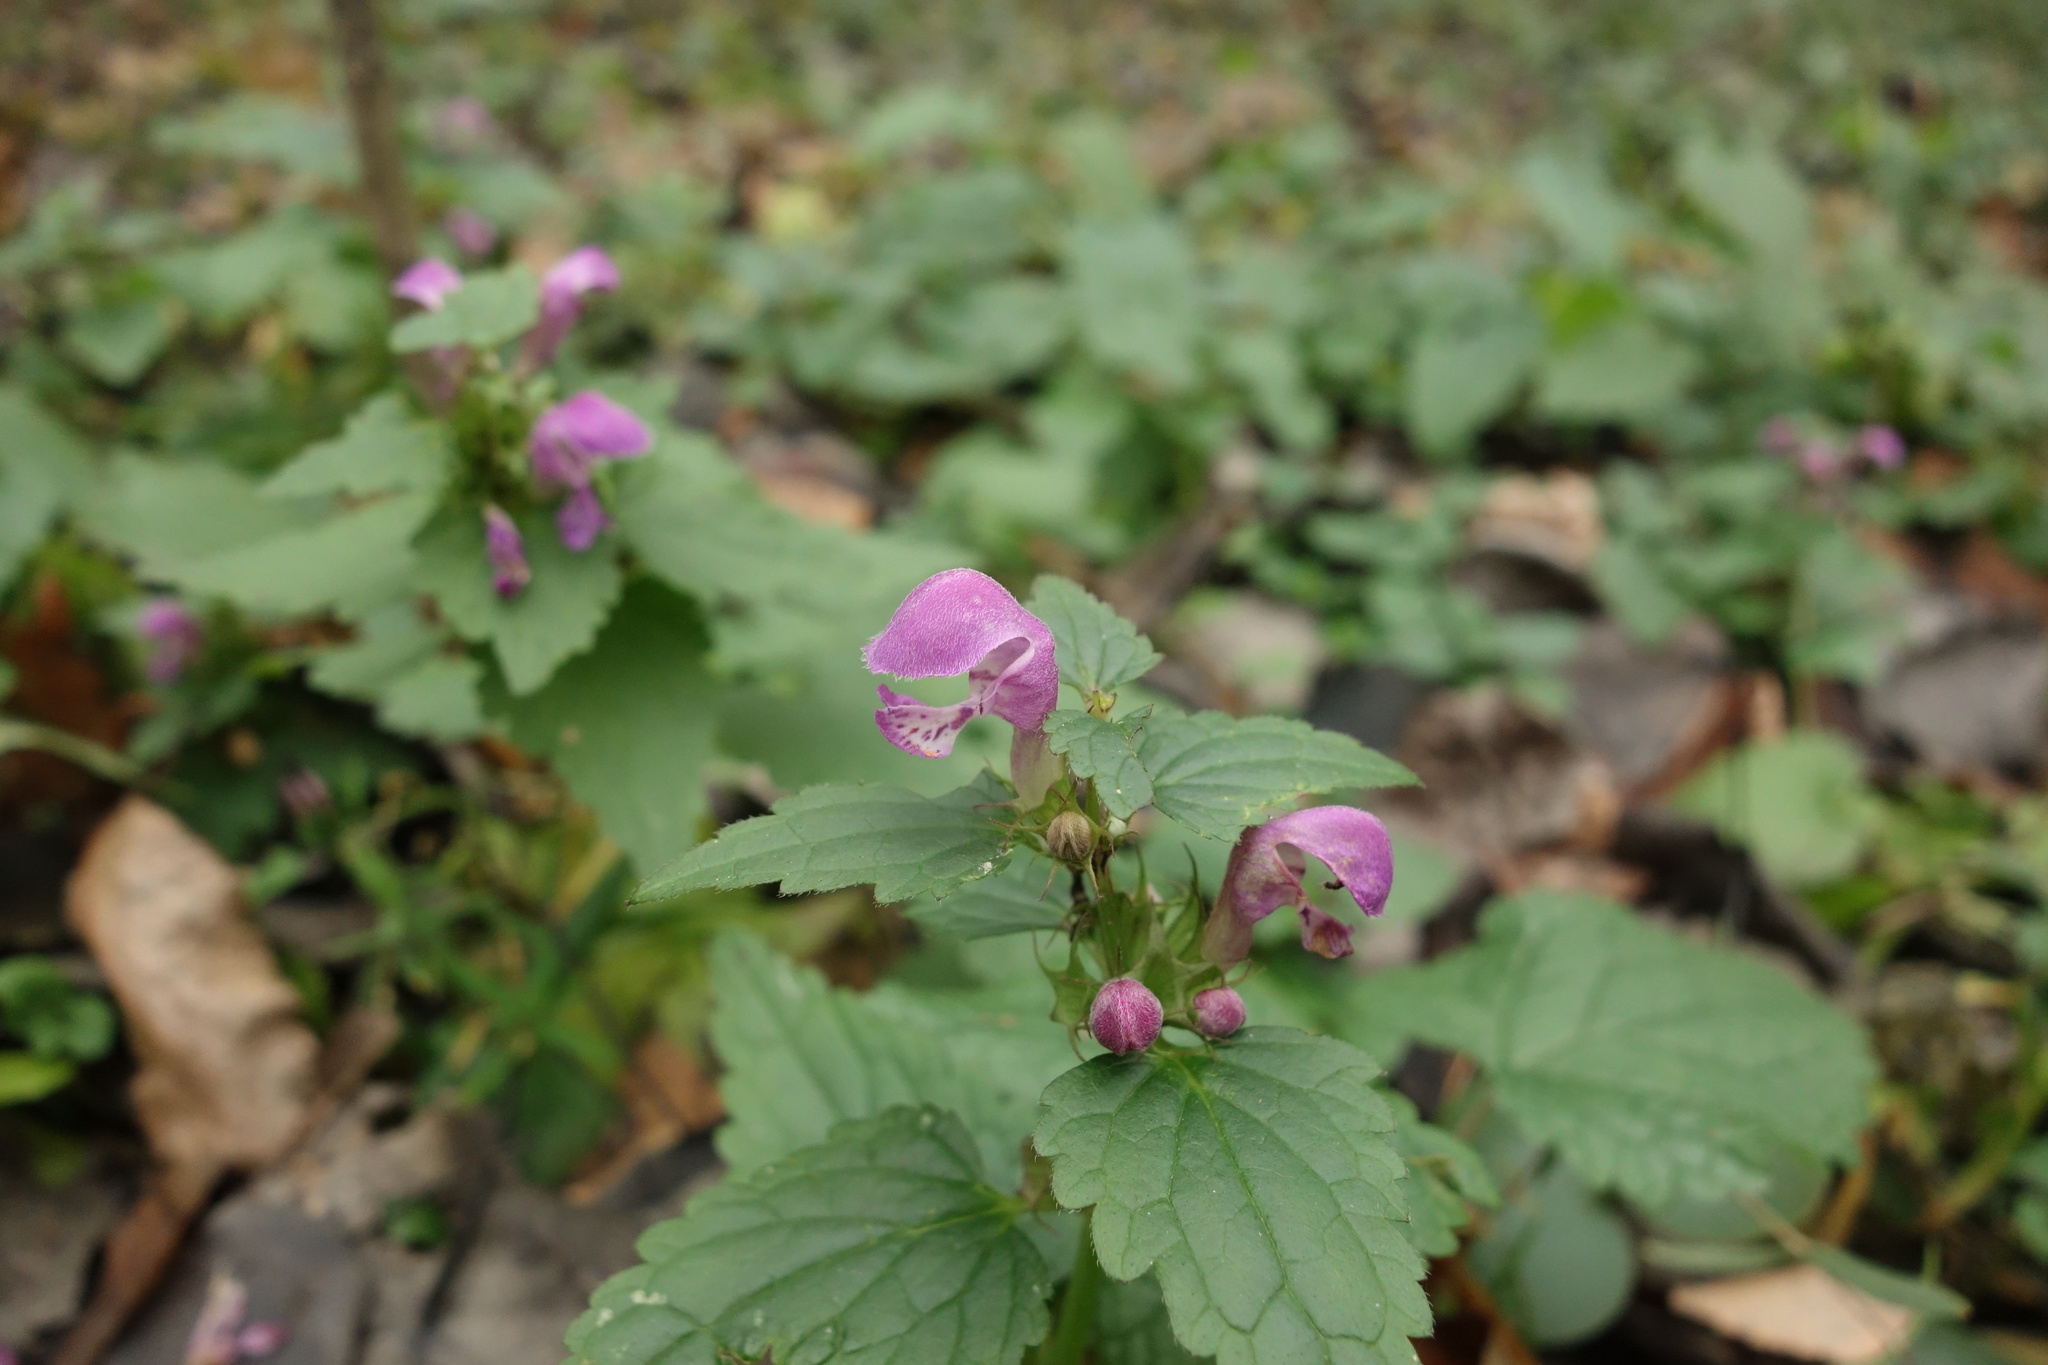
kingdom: Plantae
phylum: Tracheophyta
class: Magnoliopsida
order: Lamiales
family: Lamiaceae
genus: Lamium
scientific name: Lamium maculatum
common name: Spotted dead-nettle
